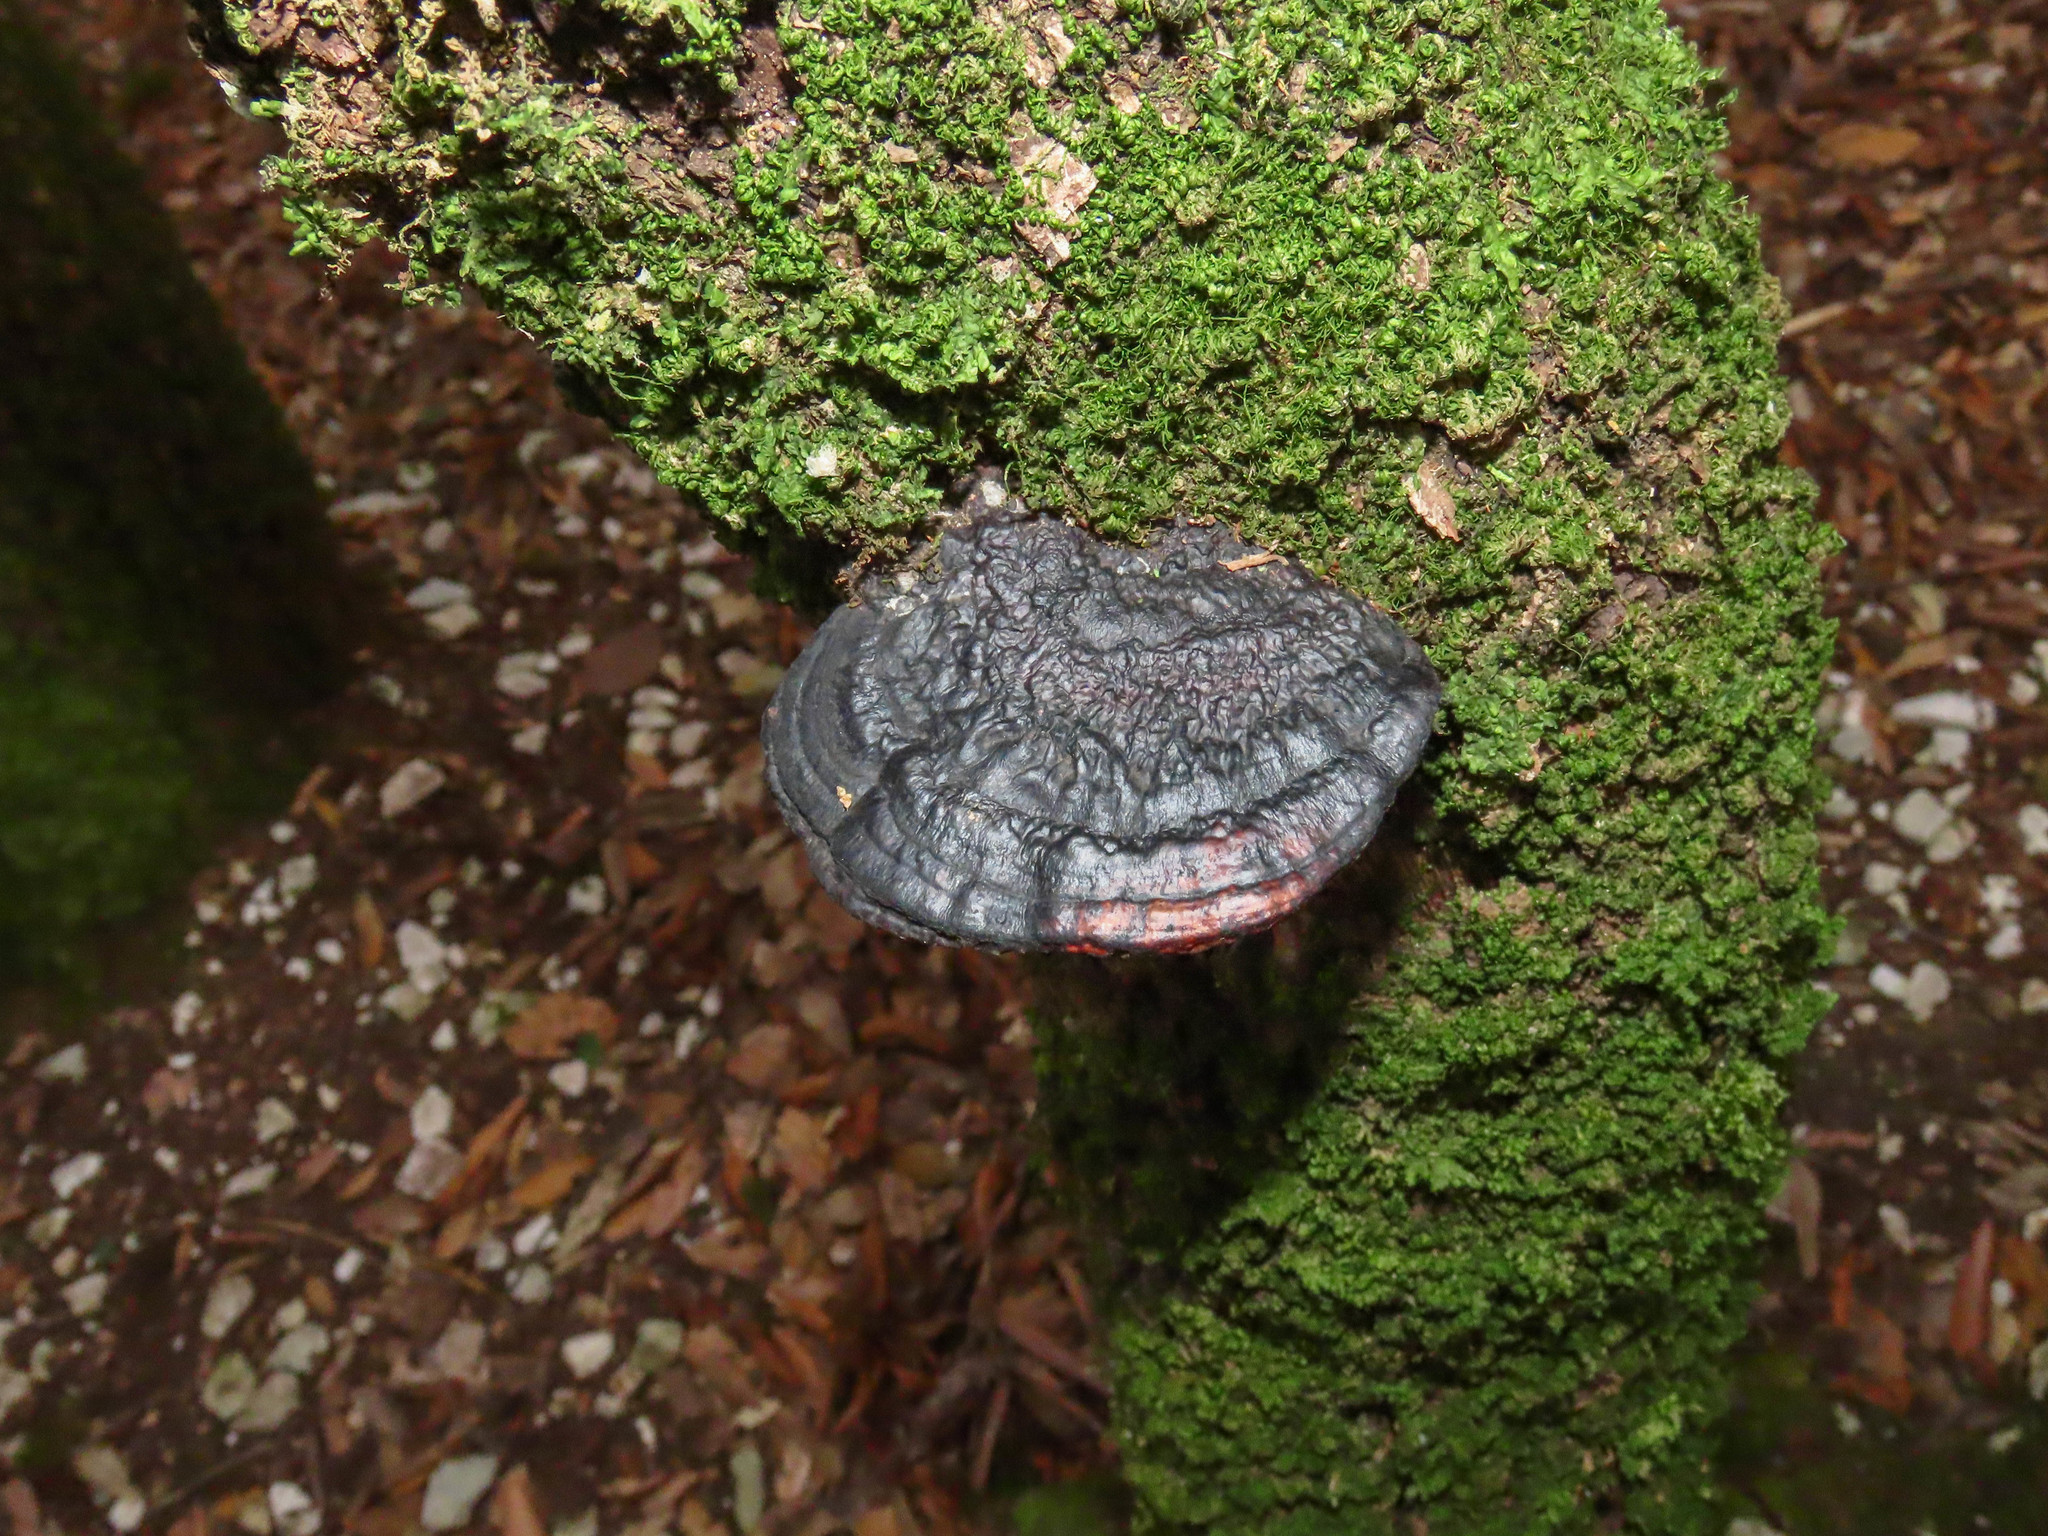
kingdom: Fungi
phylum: Basidiomycota
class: Agaricomycetes
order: Polyporales
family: Polyporaceae
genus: Daedaleopsis
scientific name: Daedaleopsis nitida
